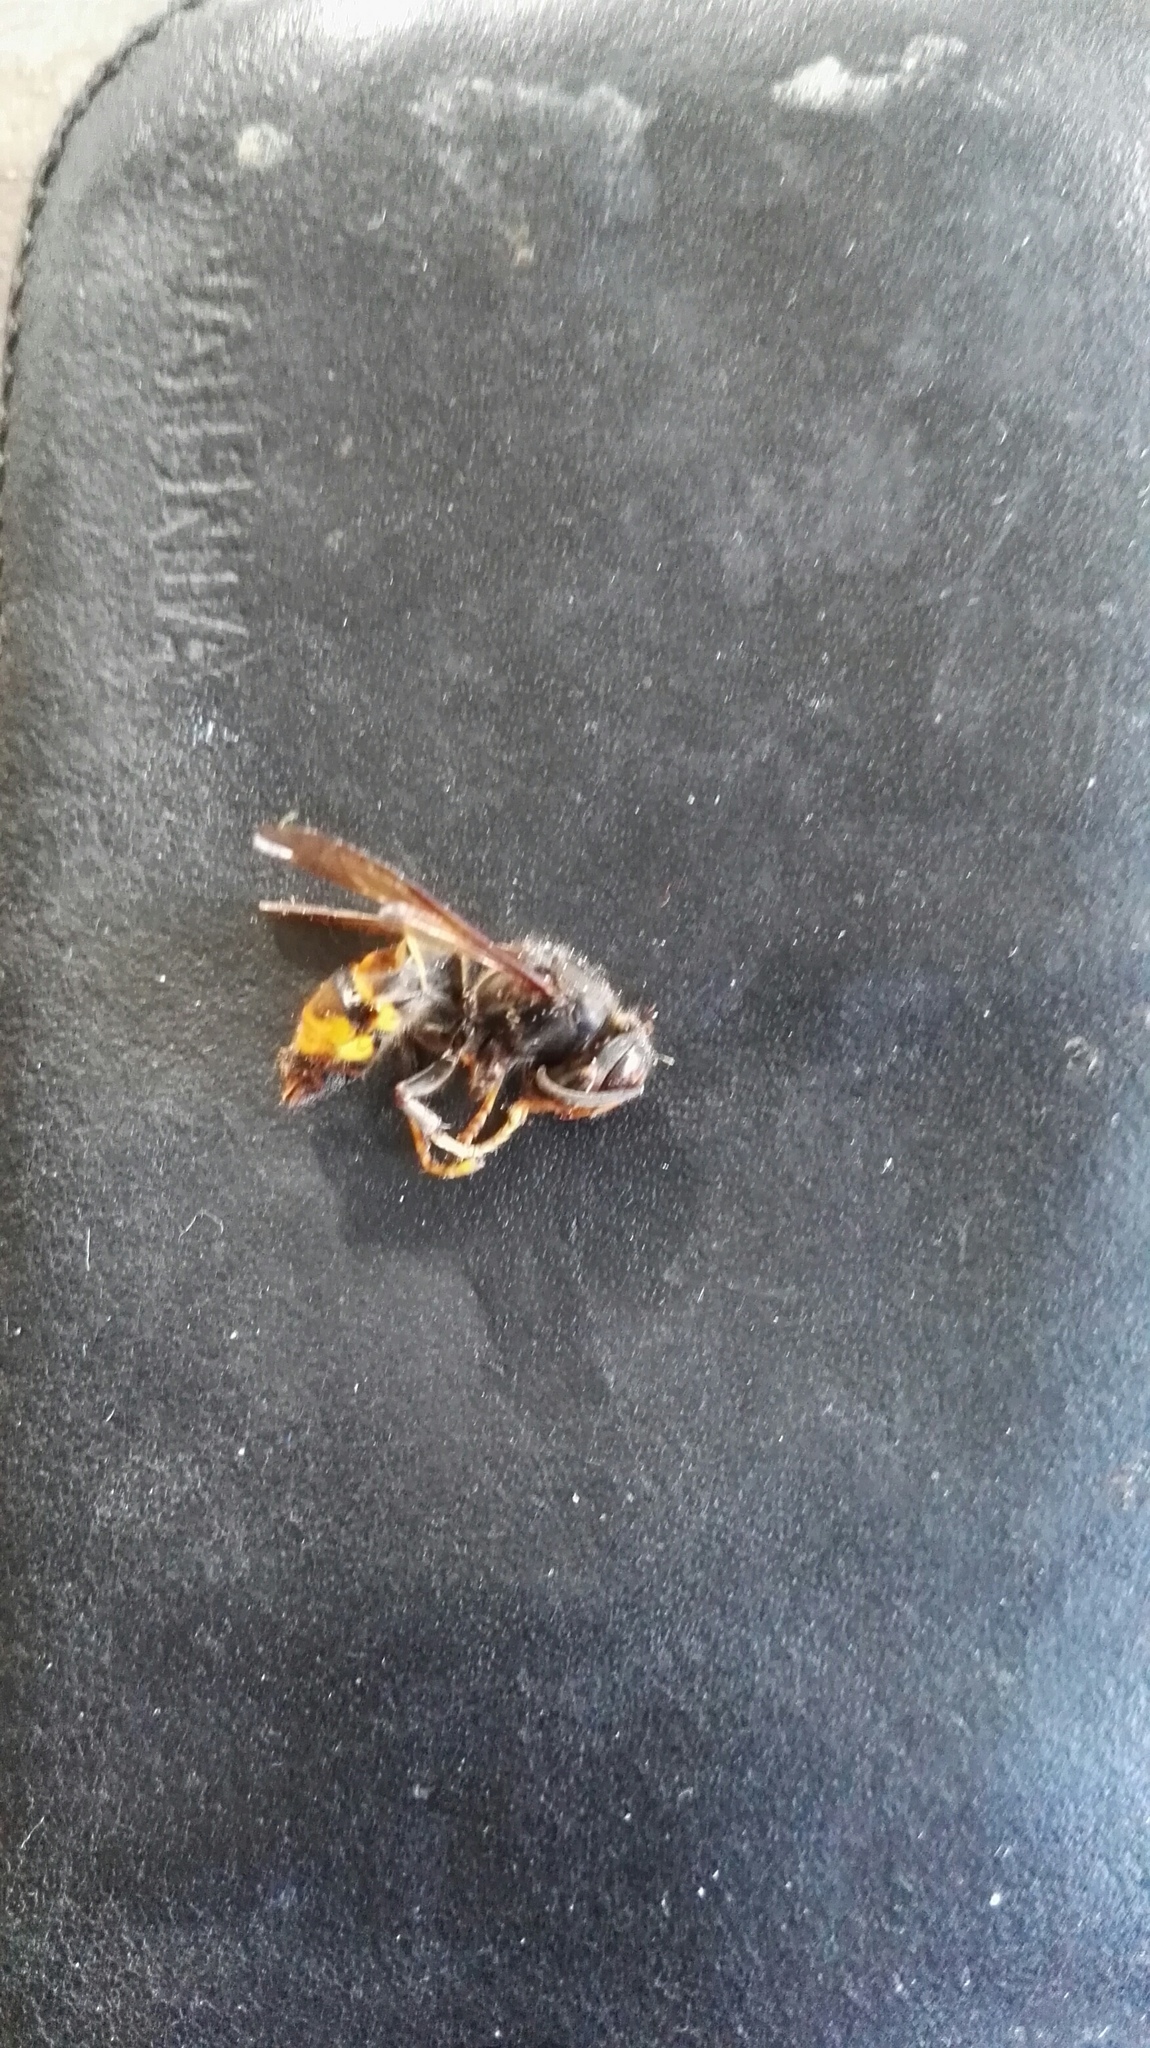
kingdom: Animalia
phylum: Arthropoda
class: Insecta
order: Hymenoptera
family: Vespidae
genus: Vespa
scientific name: Vespa velutina
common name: Asian hornet
